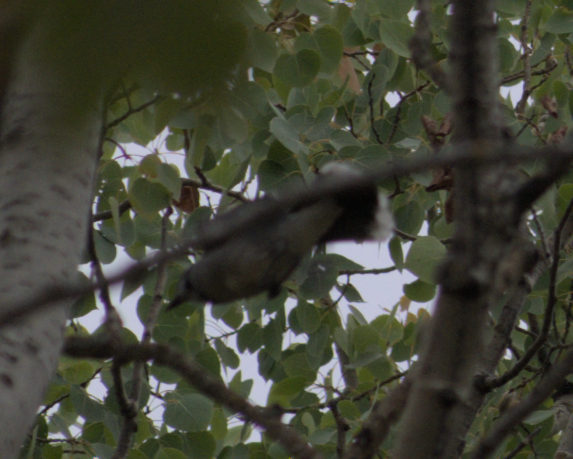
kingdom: Animalia
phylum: Chordata
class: Aves
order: Passeriformes
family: Corvidae
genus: Cyanocitta
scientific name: Cyanocitta cristata
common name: Blue jay
